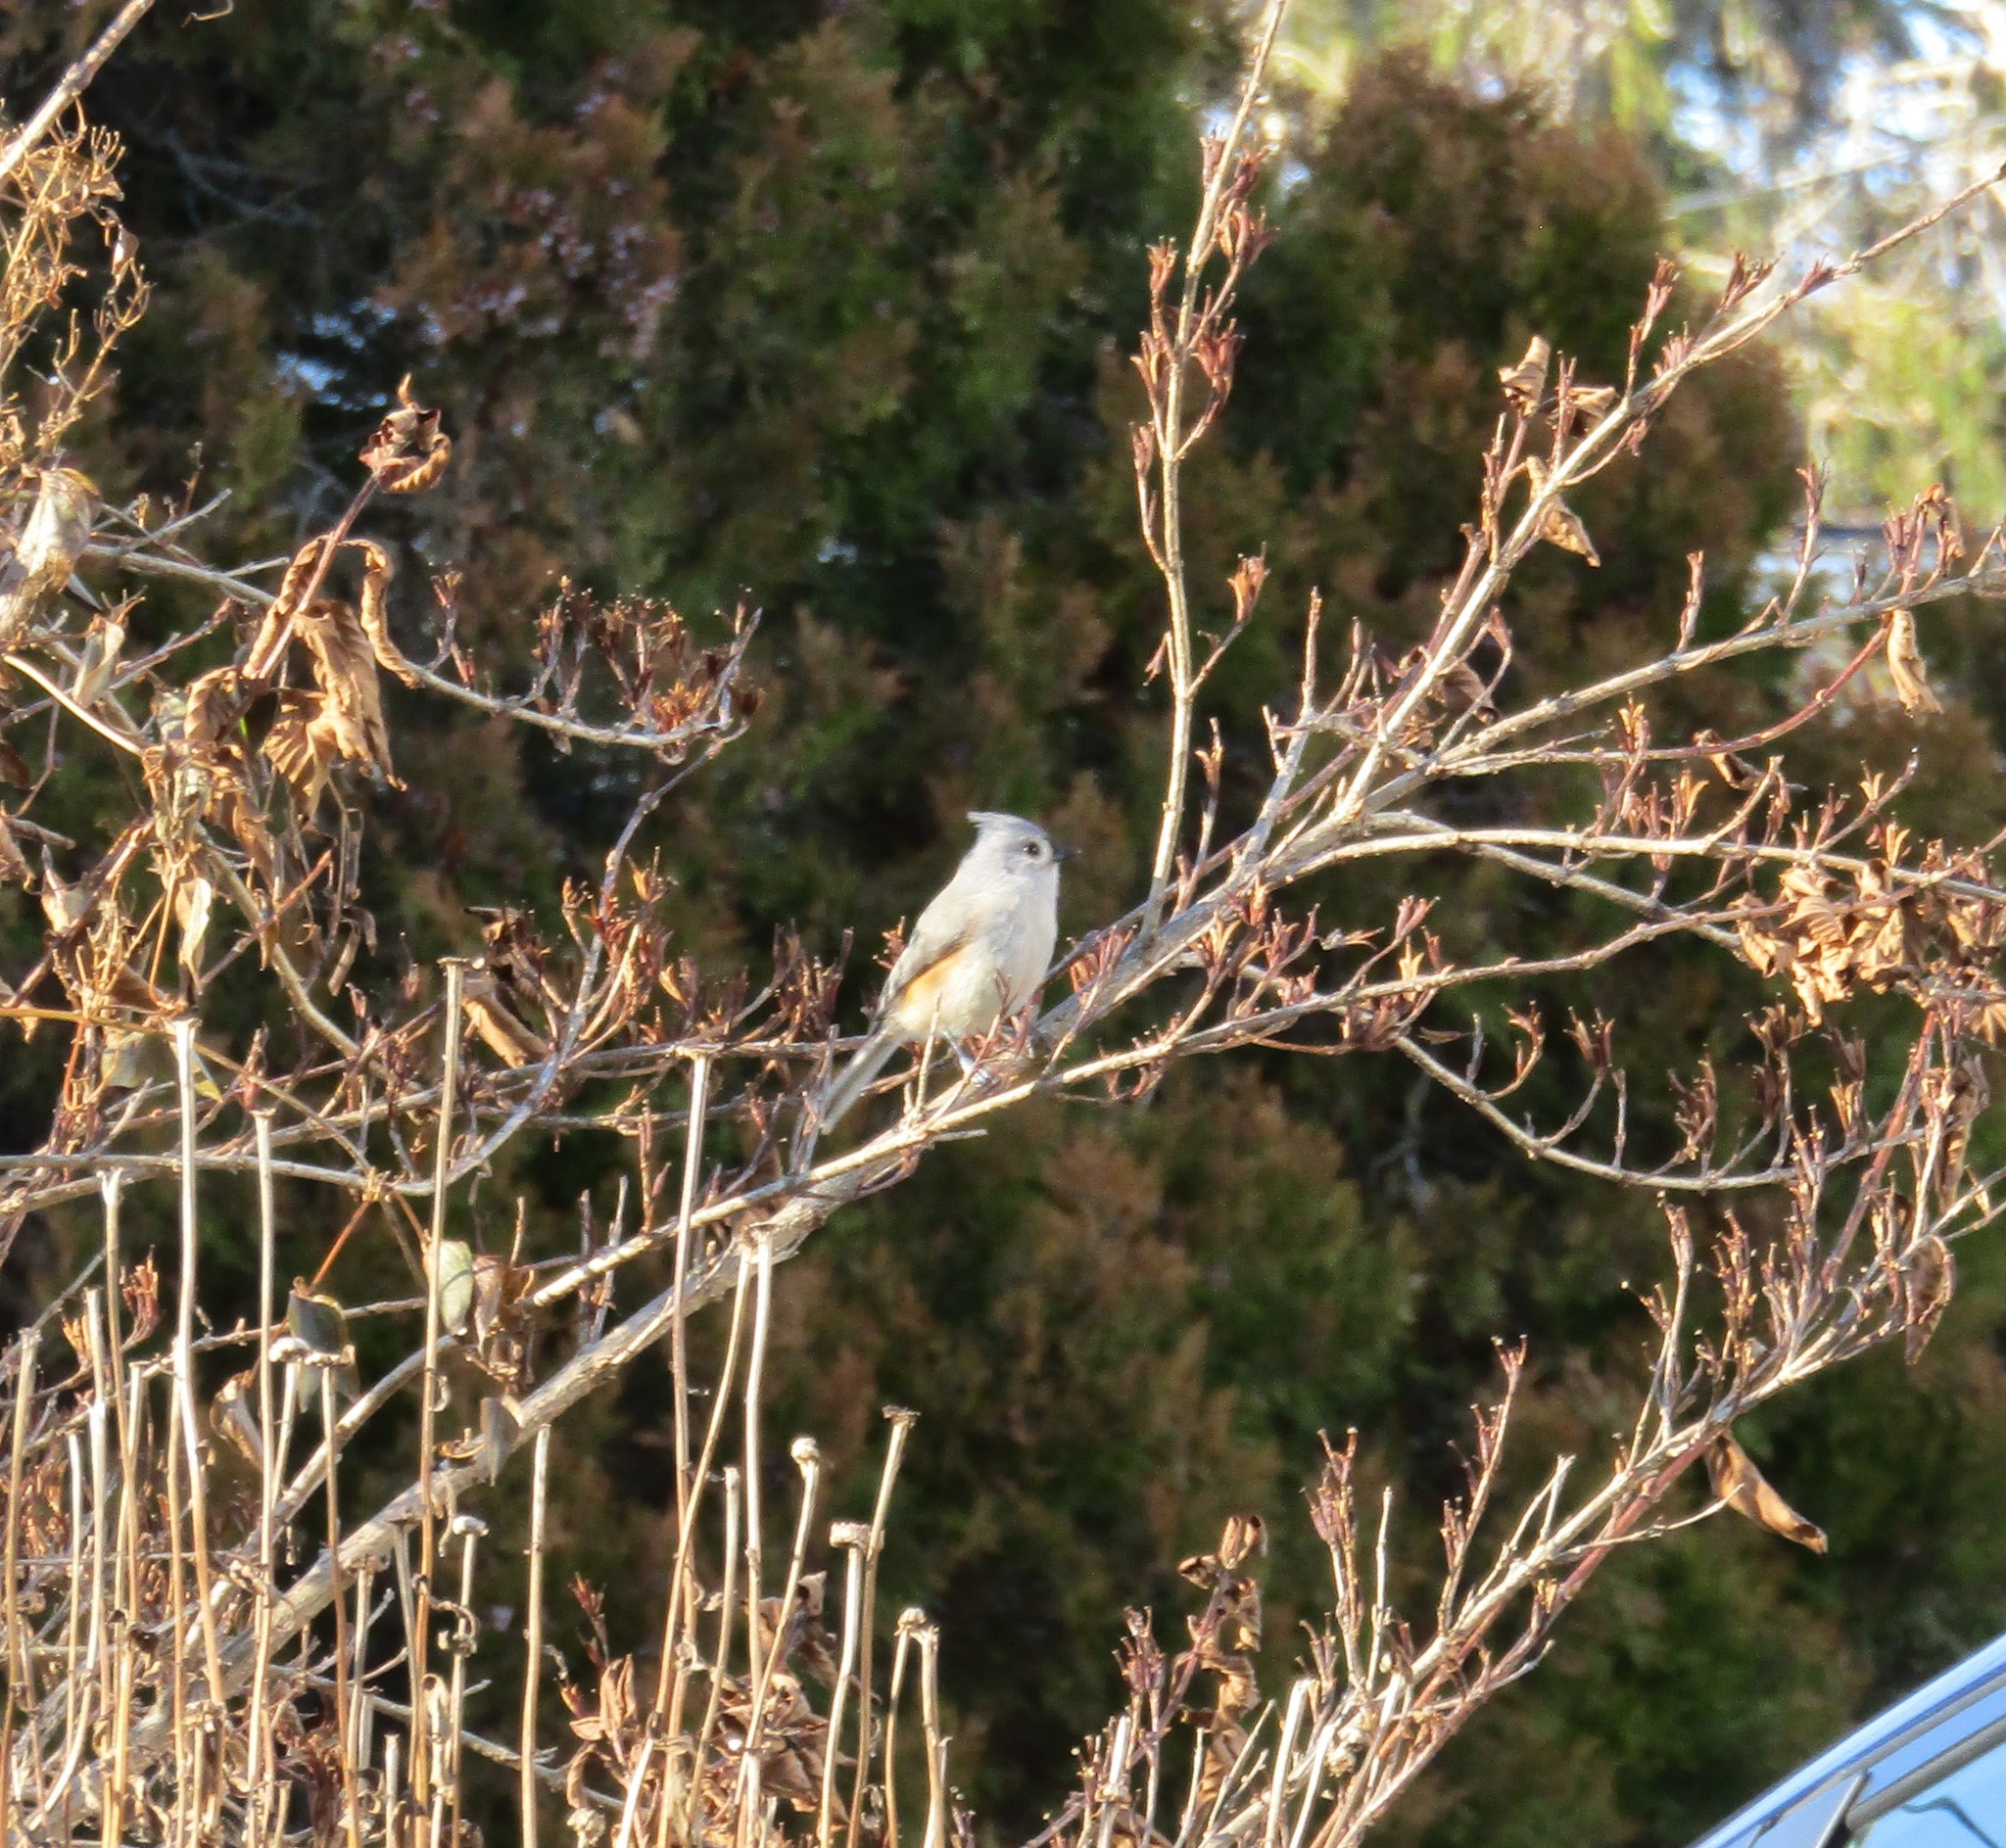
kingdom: Animalia
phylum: Chordata
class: Aves
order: Passeriformes
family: Paridae
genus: Baeolophus
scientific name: Baeolophus bicolor
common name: Tufted titmouse
